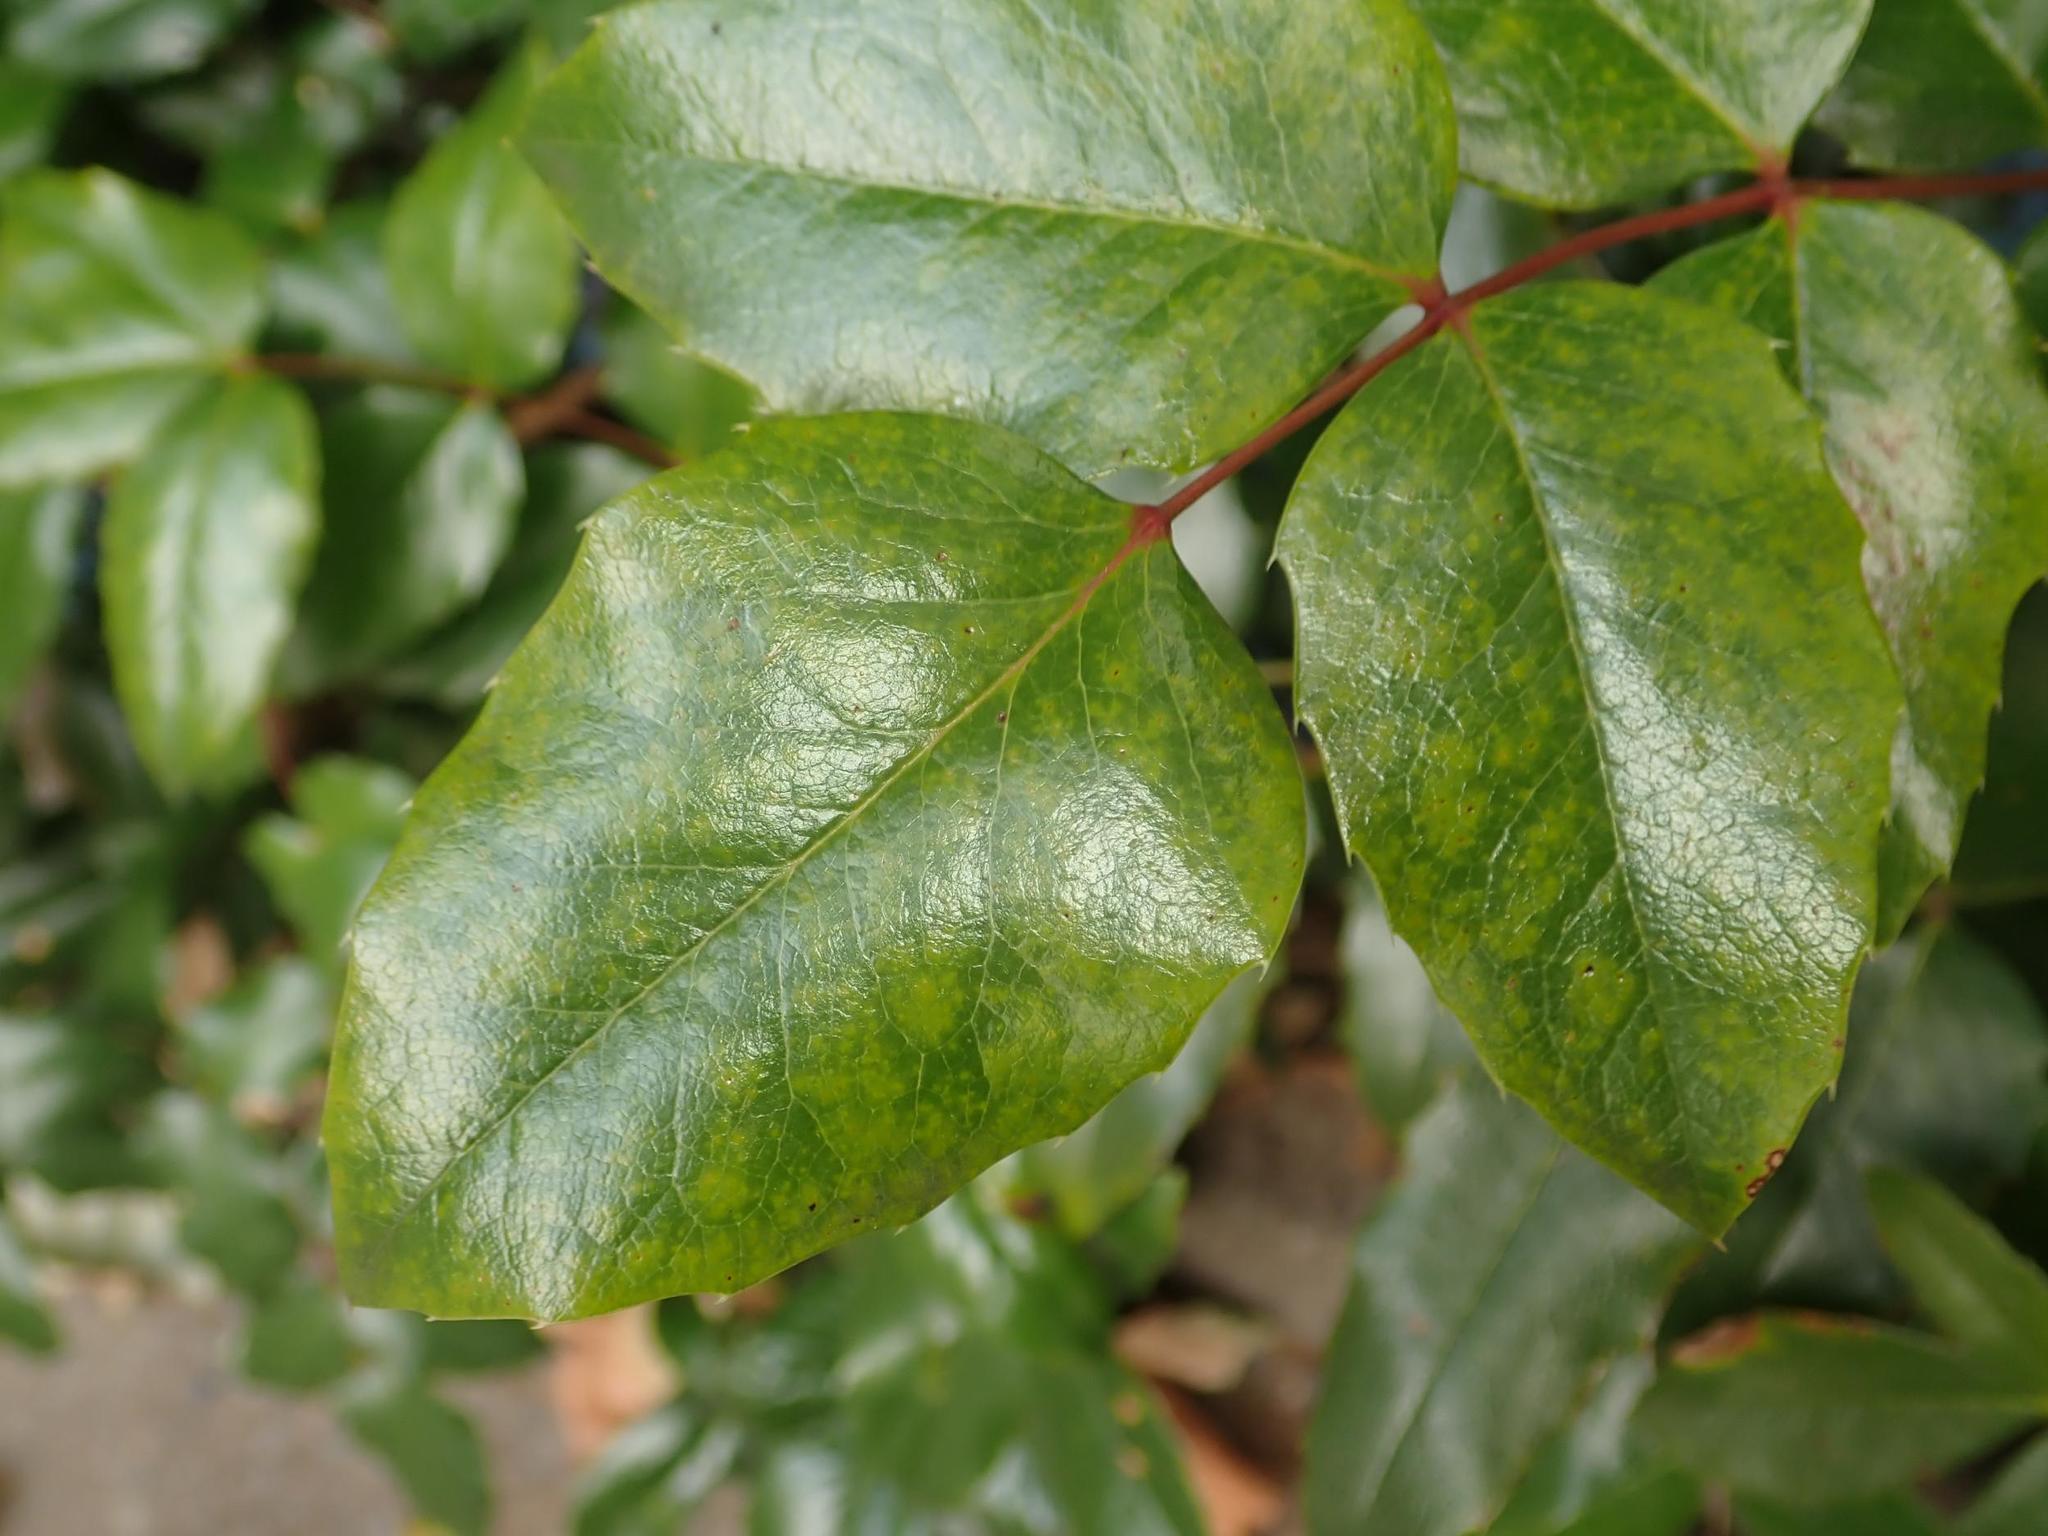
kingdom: Plantae
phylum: Tracheophyta
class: Magnoliopsida
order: Ranunculales
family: Berberidaceae
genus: Mahonia
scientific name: Mahonia aquifolium
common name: Oregon-grape
